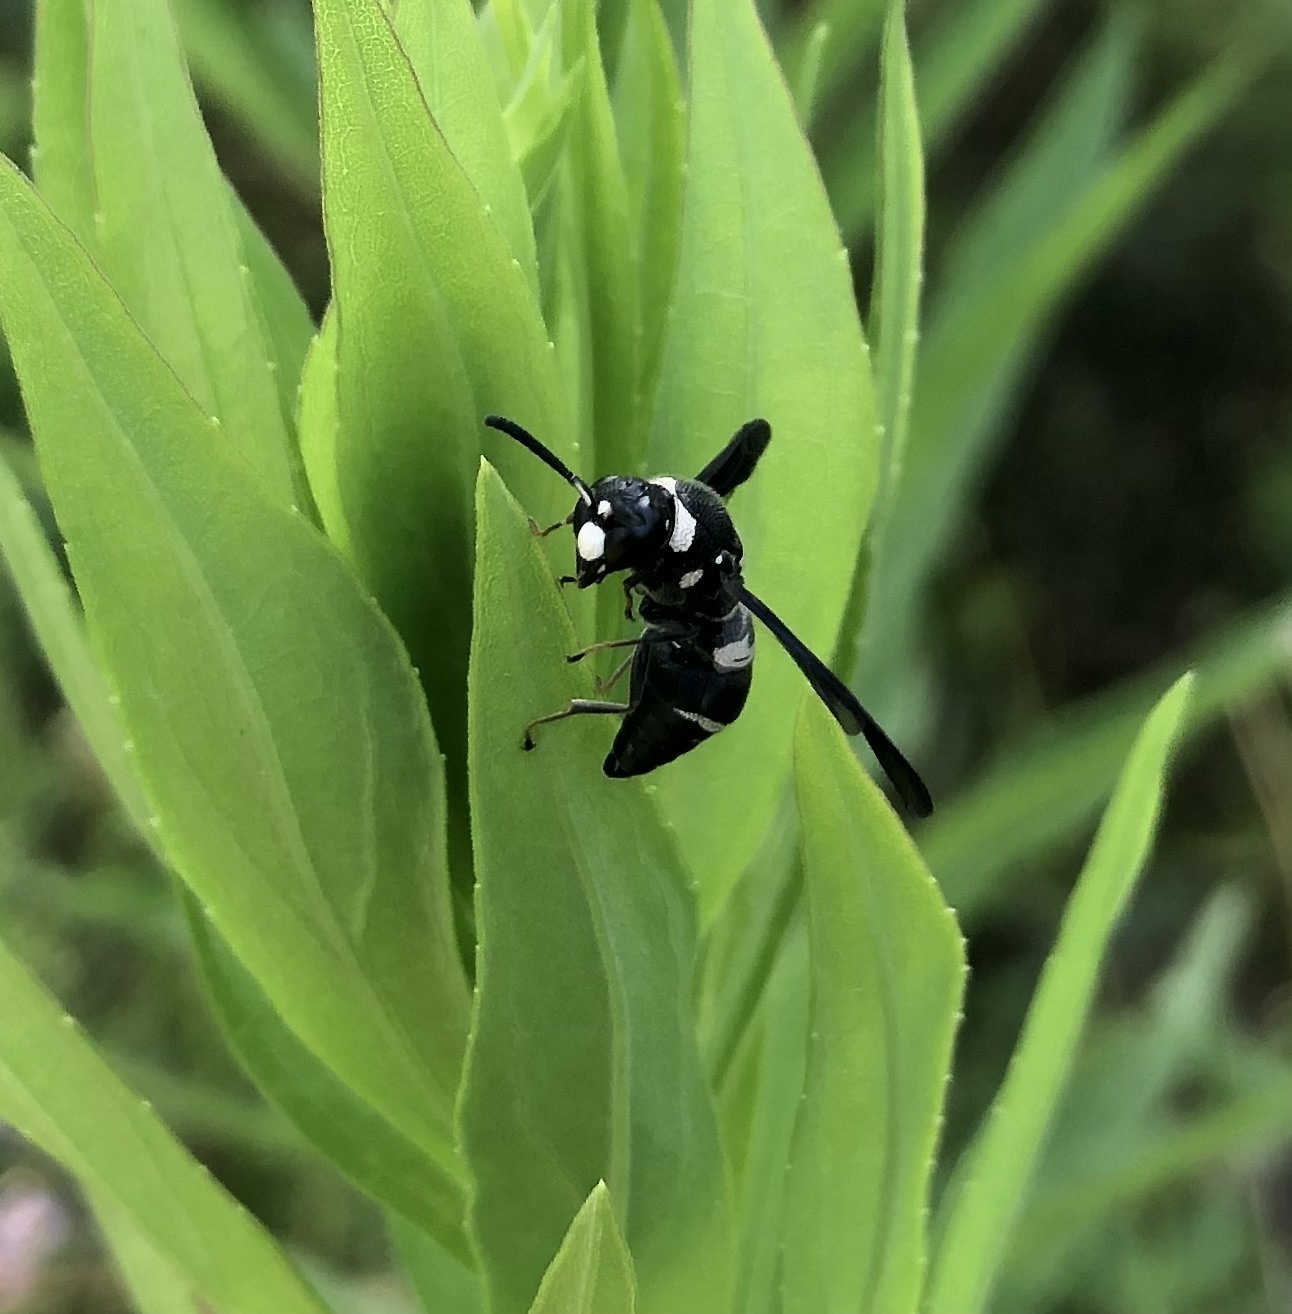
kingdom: Animalia
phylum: Arthropoda
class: Insecta
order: Hymenoptera
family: Eumenidae
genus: Euodynerus
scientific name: Euodynerus megaera
